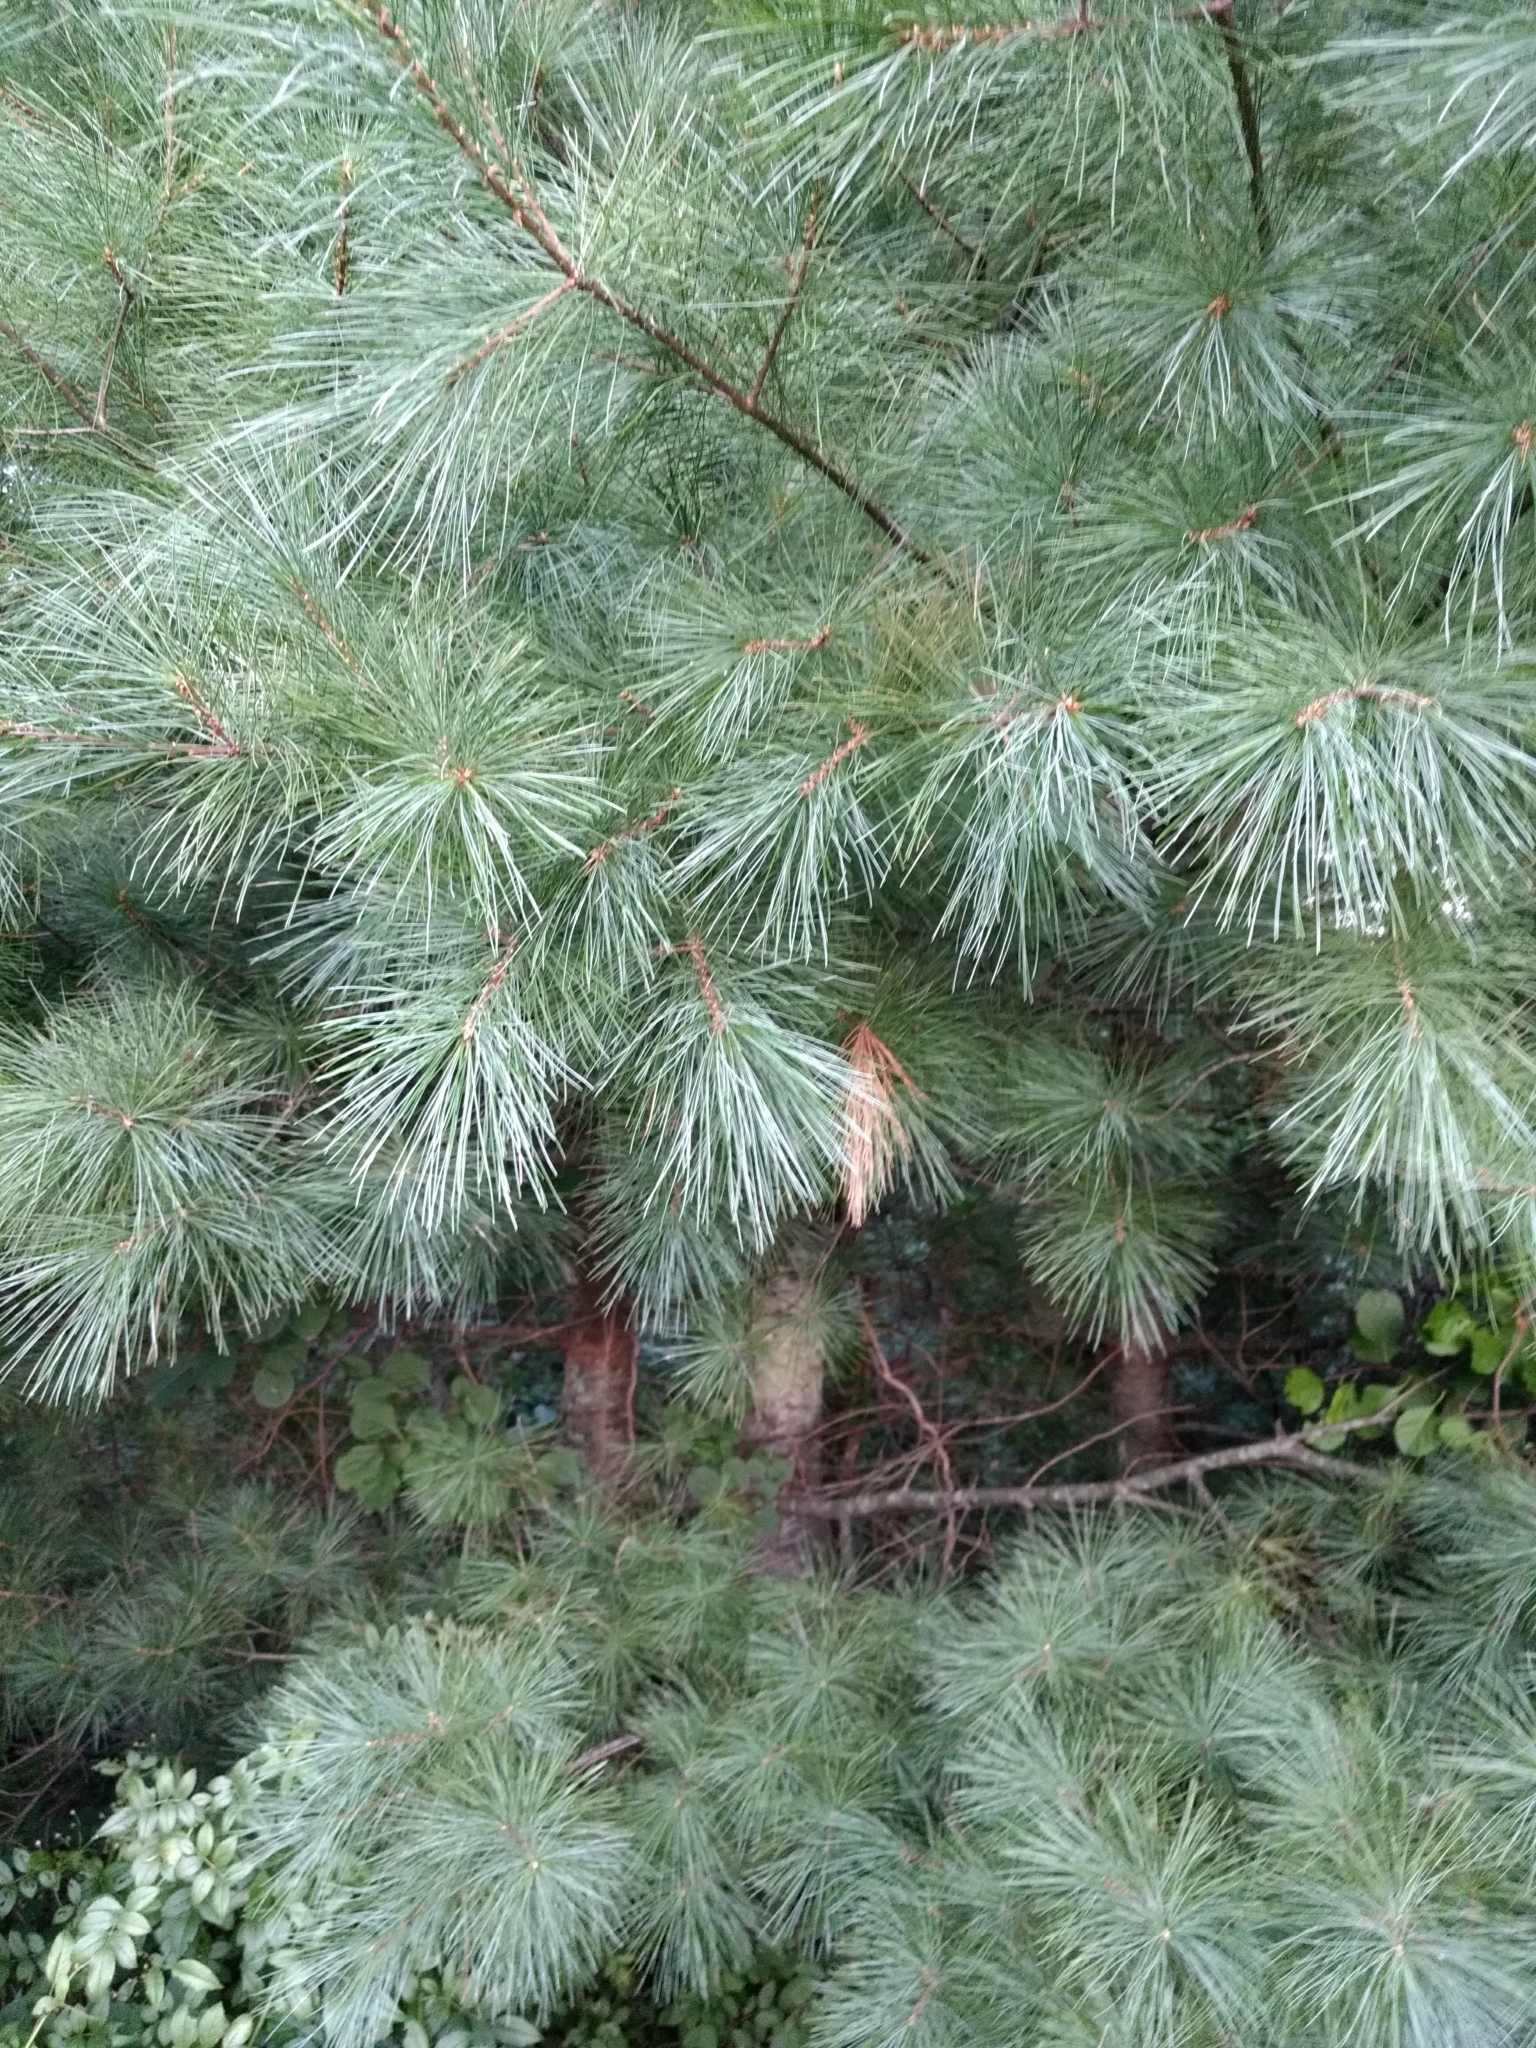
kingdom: Plantae
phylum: Tracheophyta
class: Pinopsida
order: Pinales
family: Pinaceae
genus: Pinus
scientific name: Pinus strobus
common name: Weymouth pine
